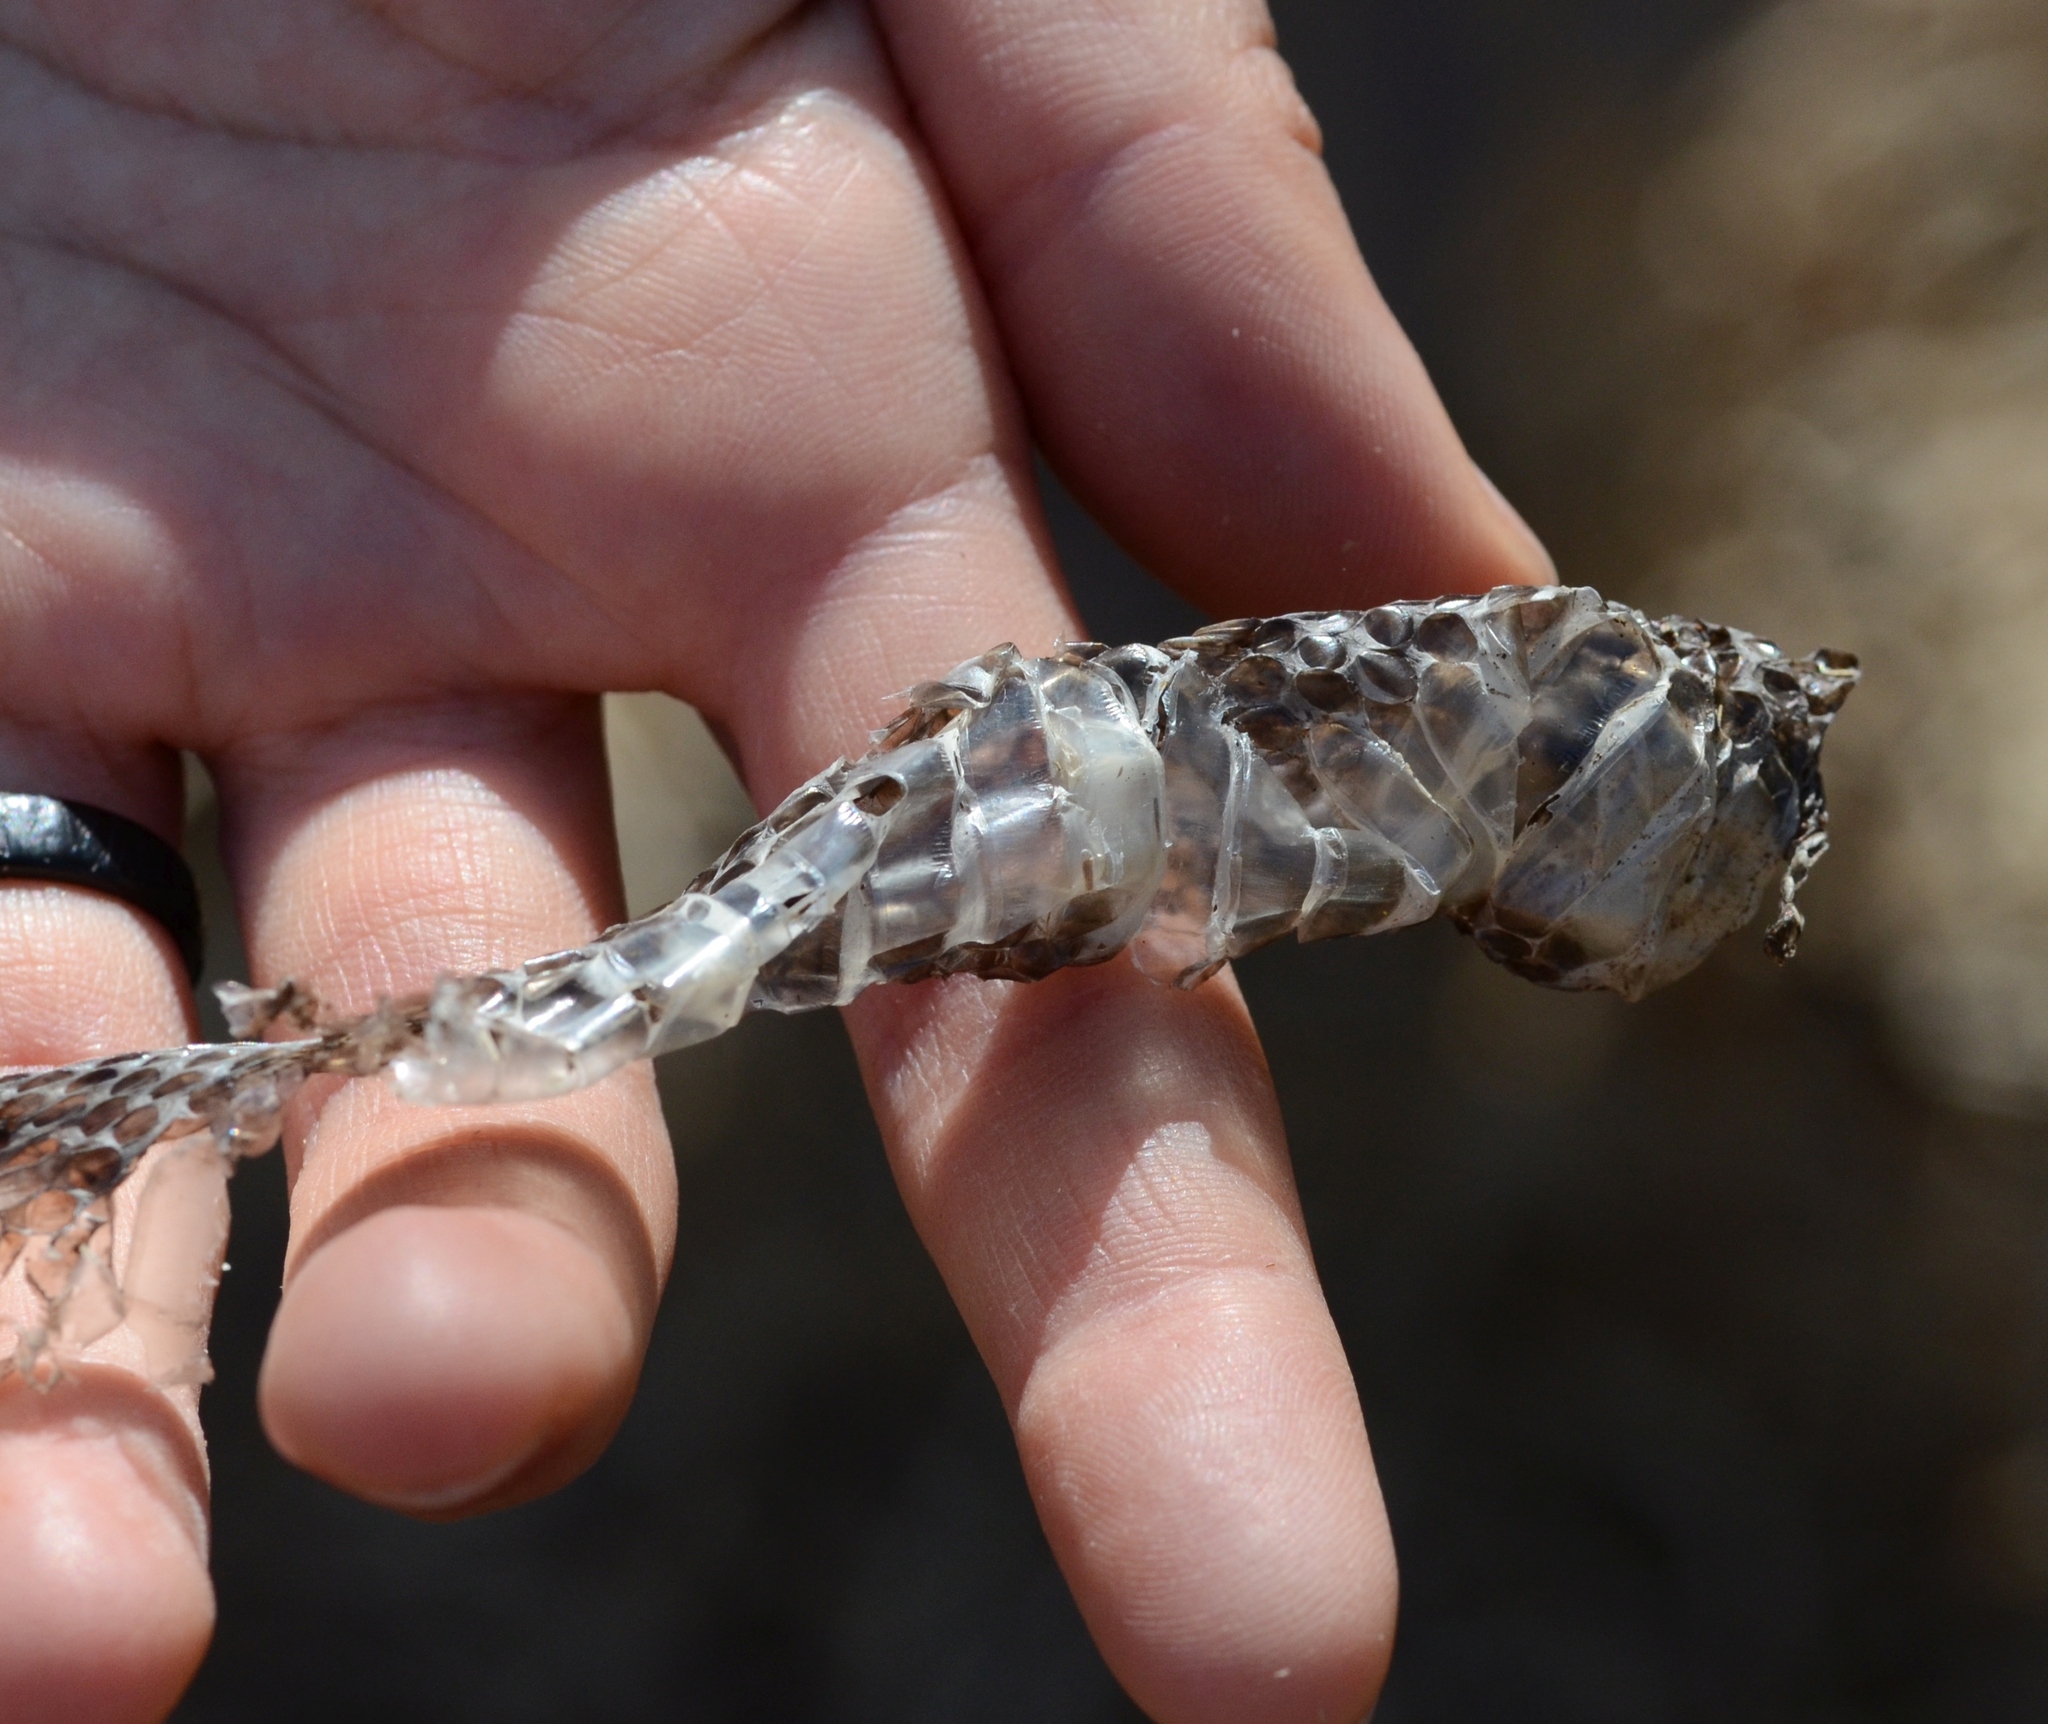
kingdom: Animalia
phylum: Chordata
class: Squamata
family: Viperidae
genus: Vipera
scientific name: Vipera berus
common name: Adder
